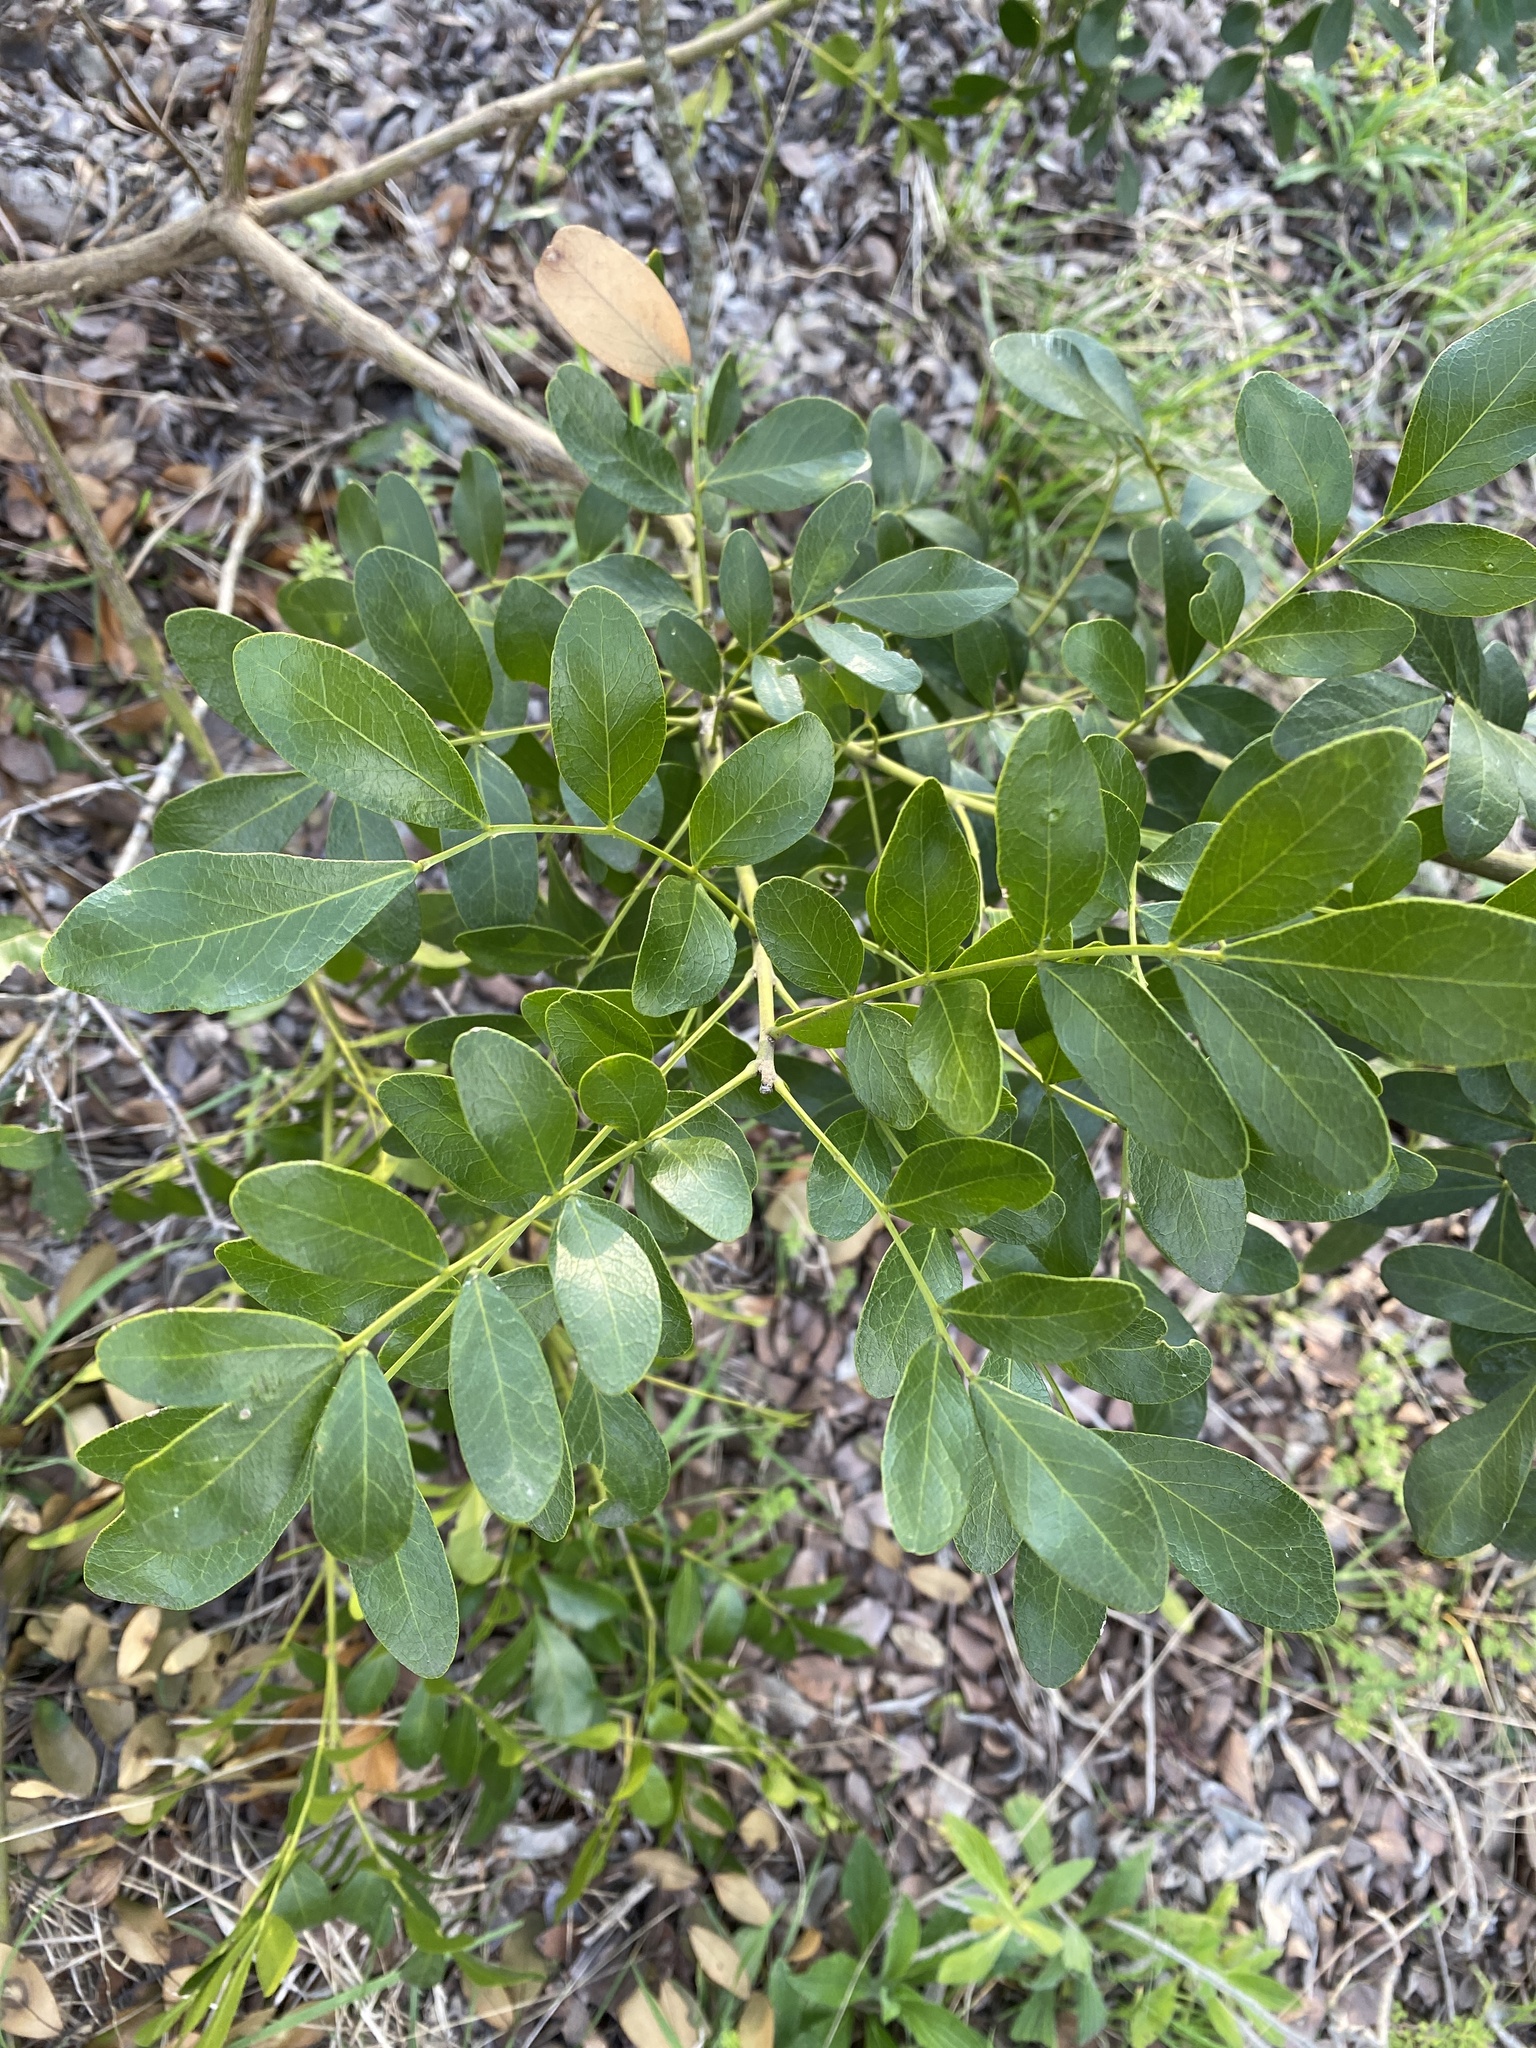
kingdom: Plantae
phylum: Tracheophyta
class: Magnoliopsida
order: Fabales
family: Fabaceae
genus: Dermatophyllum
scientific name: Dermatophyllum secundiflorum
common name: Texas-mountain-laurel
